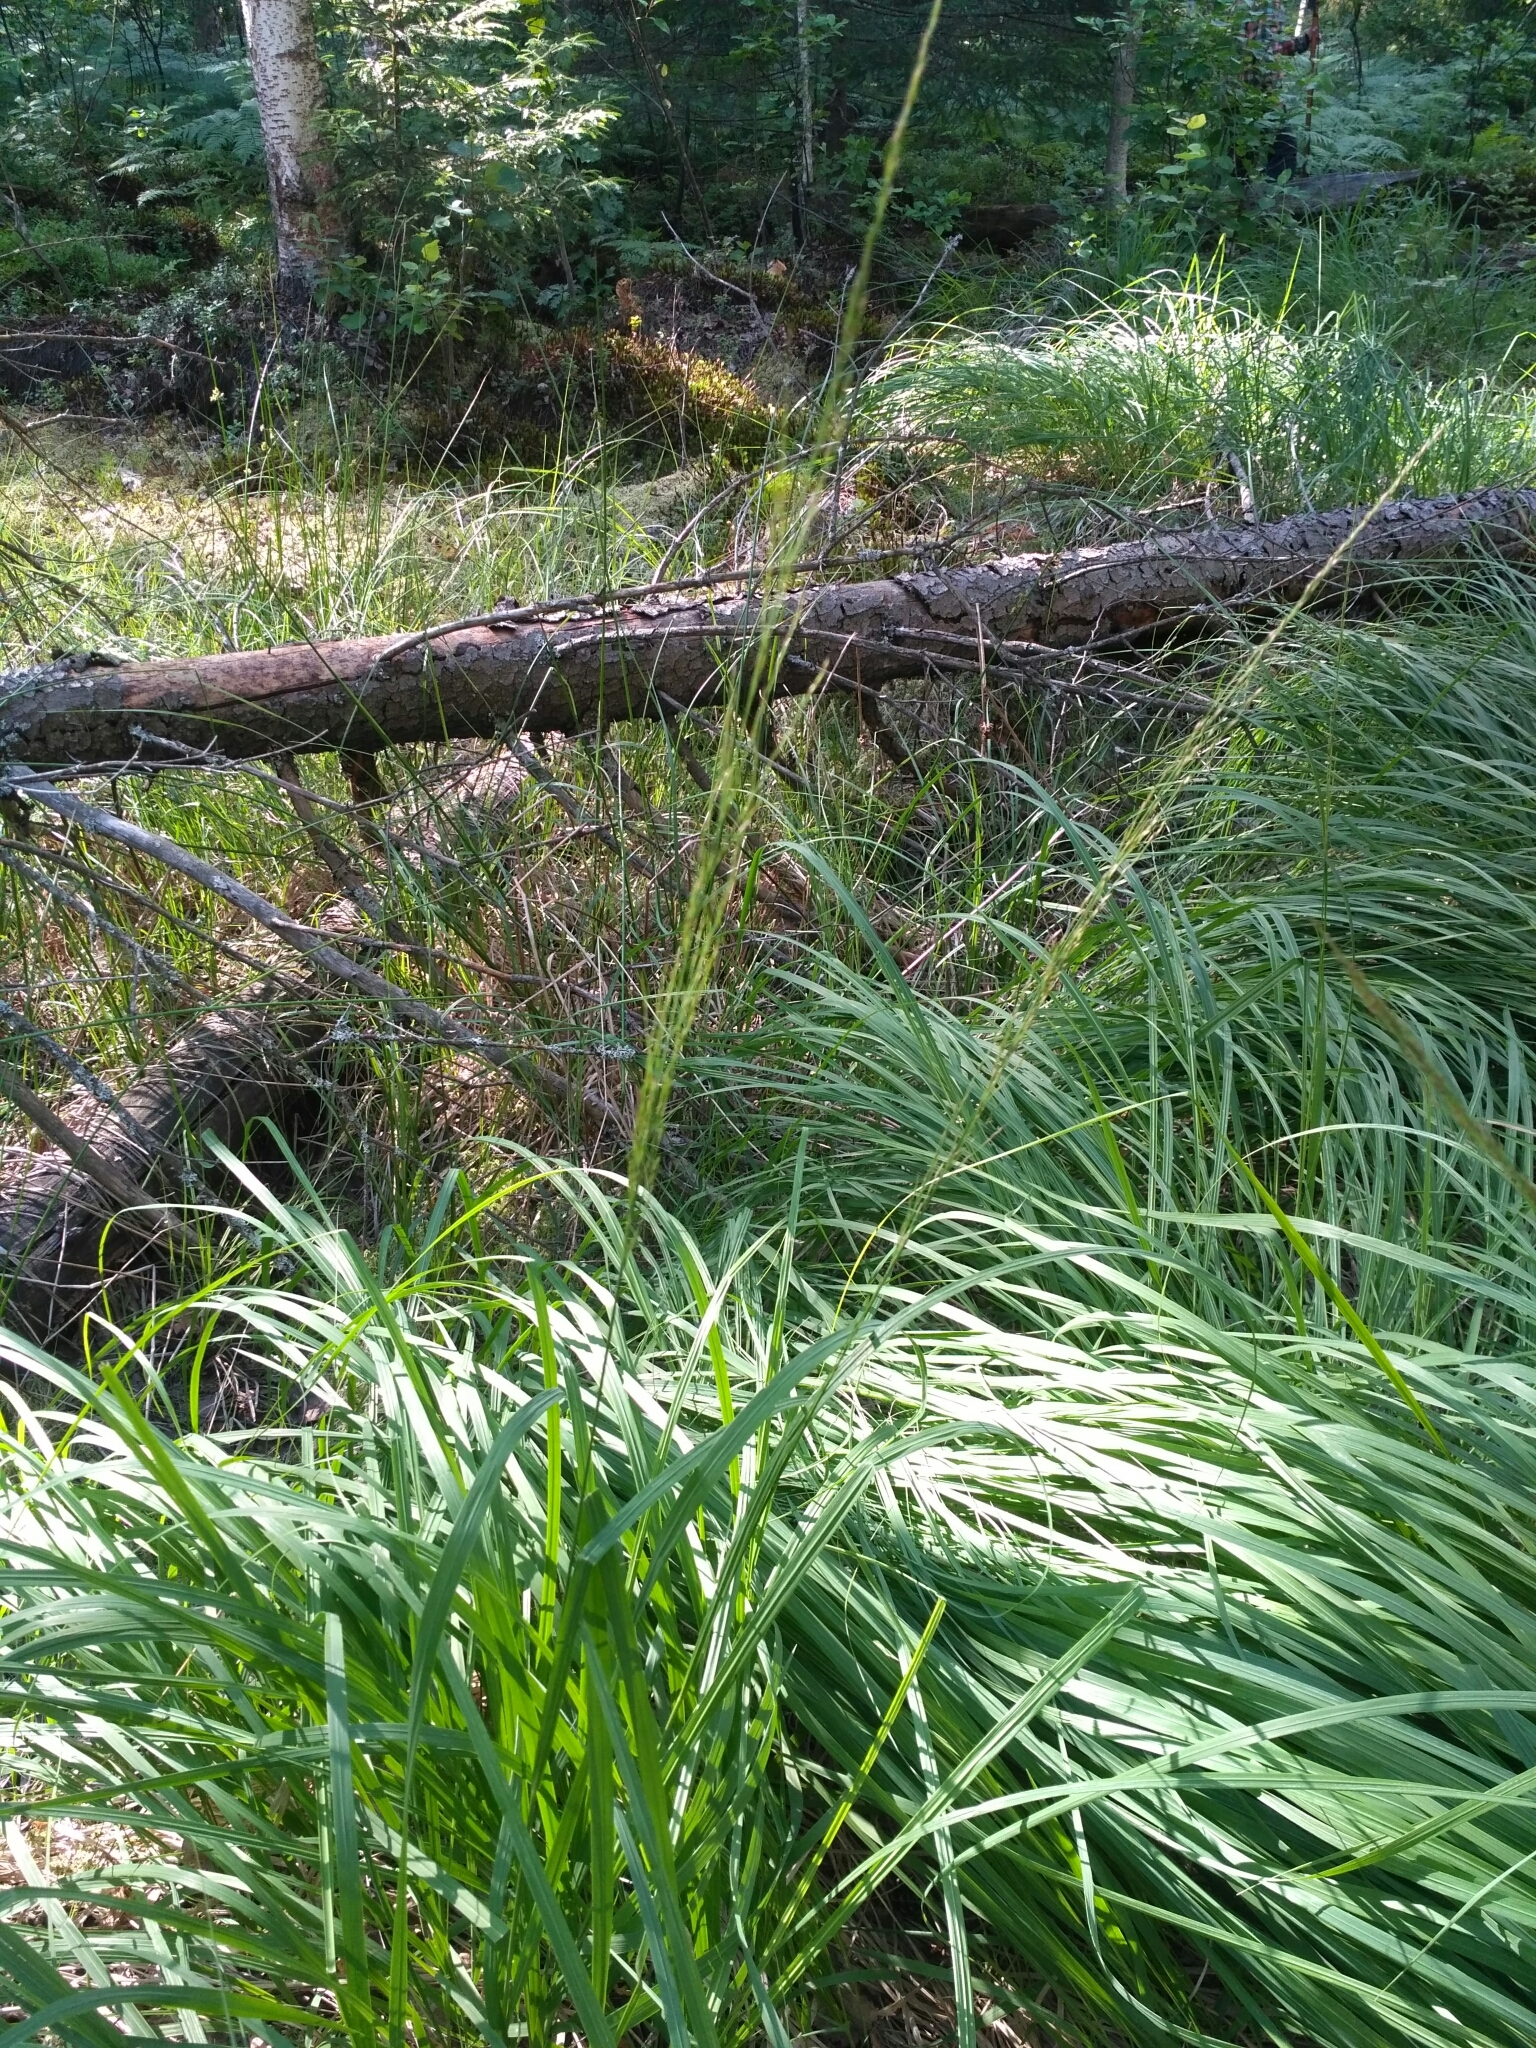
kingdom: Plantae
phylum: Tracheophyta
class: Liliopsida
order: Poales
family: Poaceae
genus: Molinia
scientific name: Molinia caerulea
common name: Purple moor-grass
